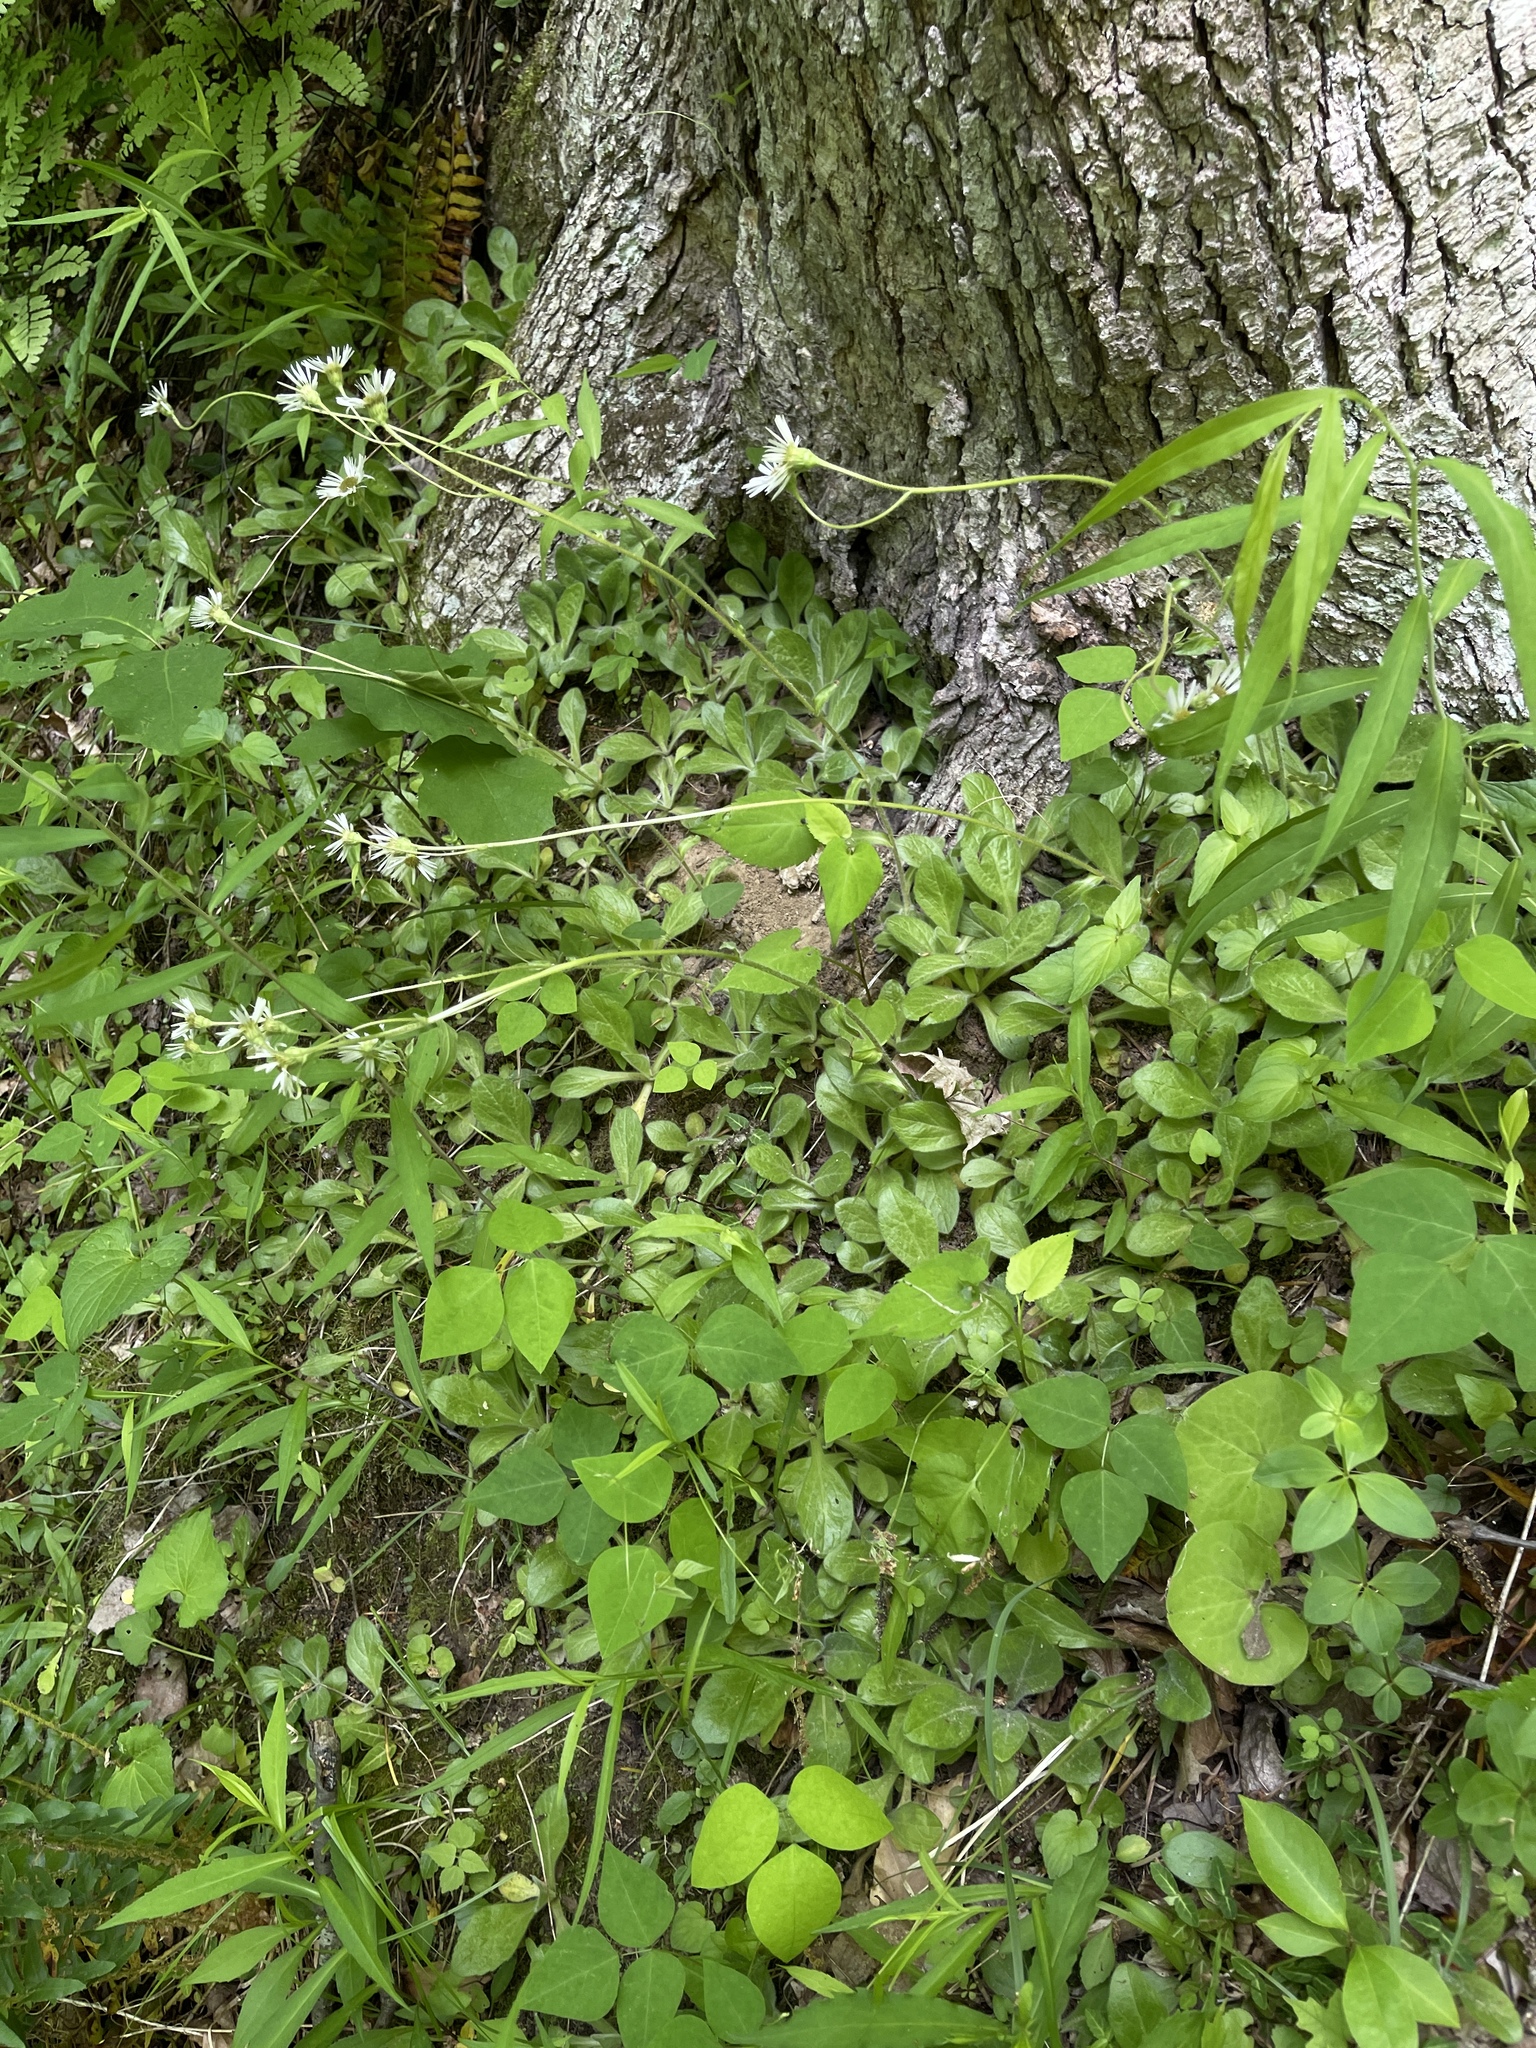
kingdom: Plantae
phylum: Tracheophyta
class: Magnoliopsida
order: Asterales
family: Asteraceae
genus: Erigeron
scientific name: Erigeron pulchellus
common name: Hairy fleabane
